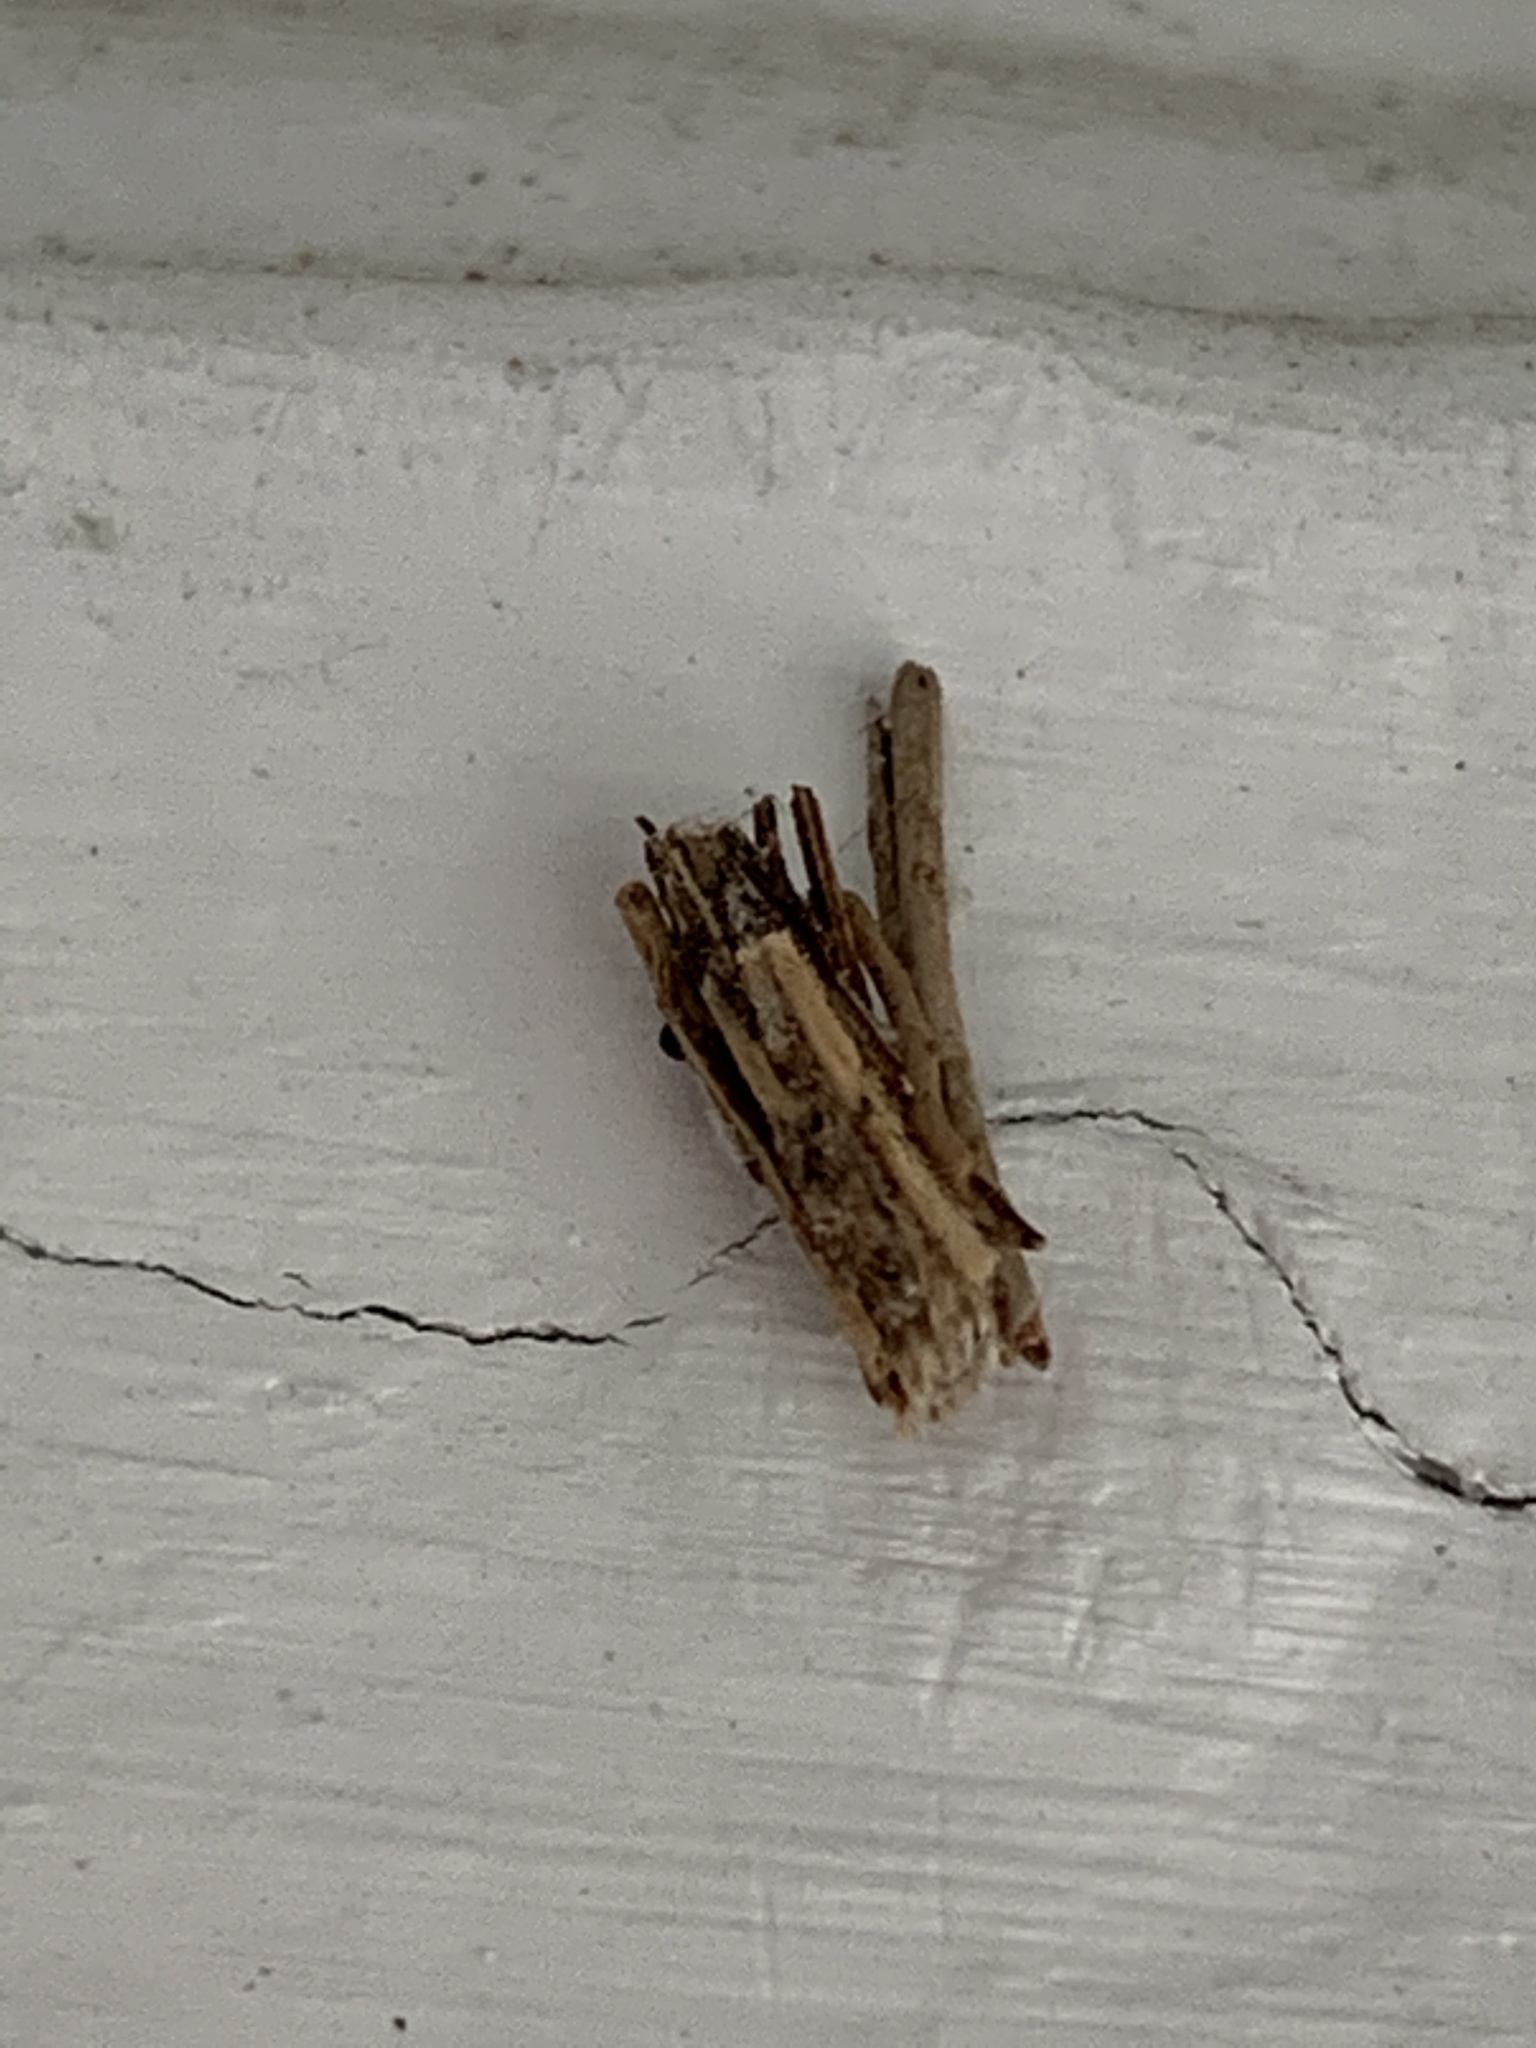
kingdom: Animalia
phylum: Arthropoda
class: Insecta
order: Lepidoptera
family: Psychidae
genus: Psyche
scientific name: Psyche casta
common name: Common sweep
